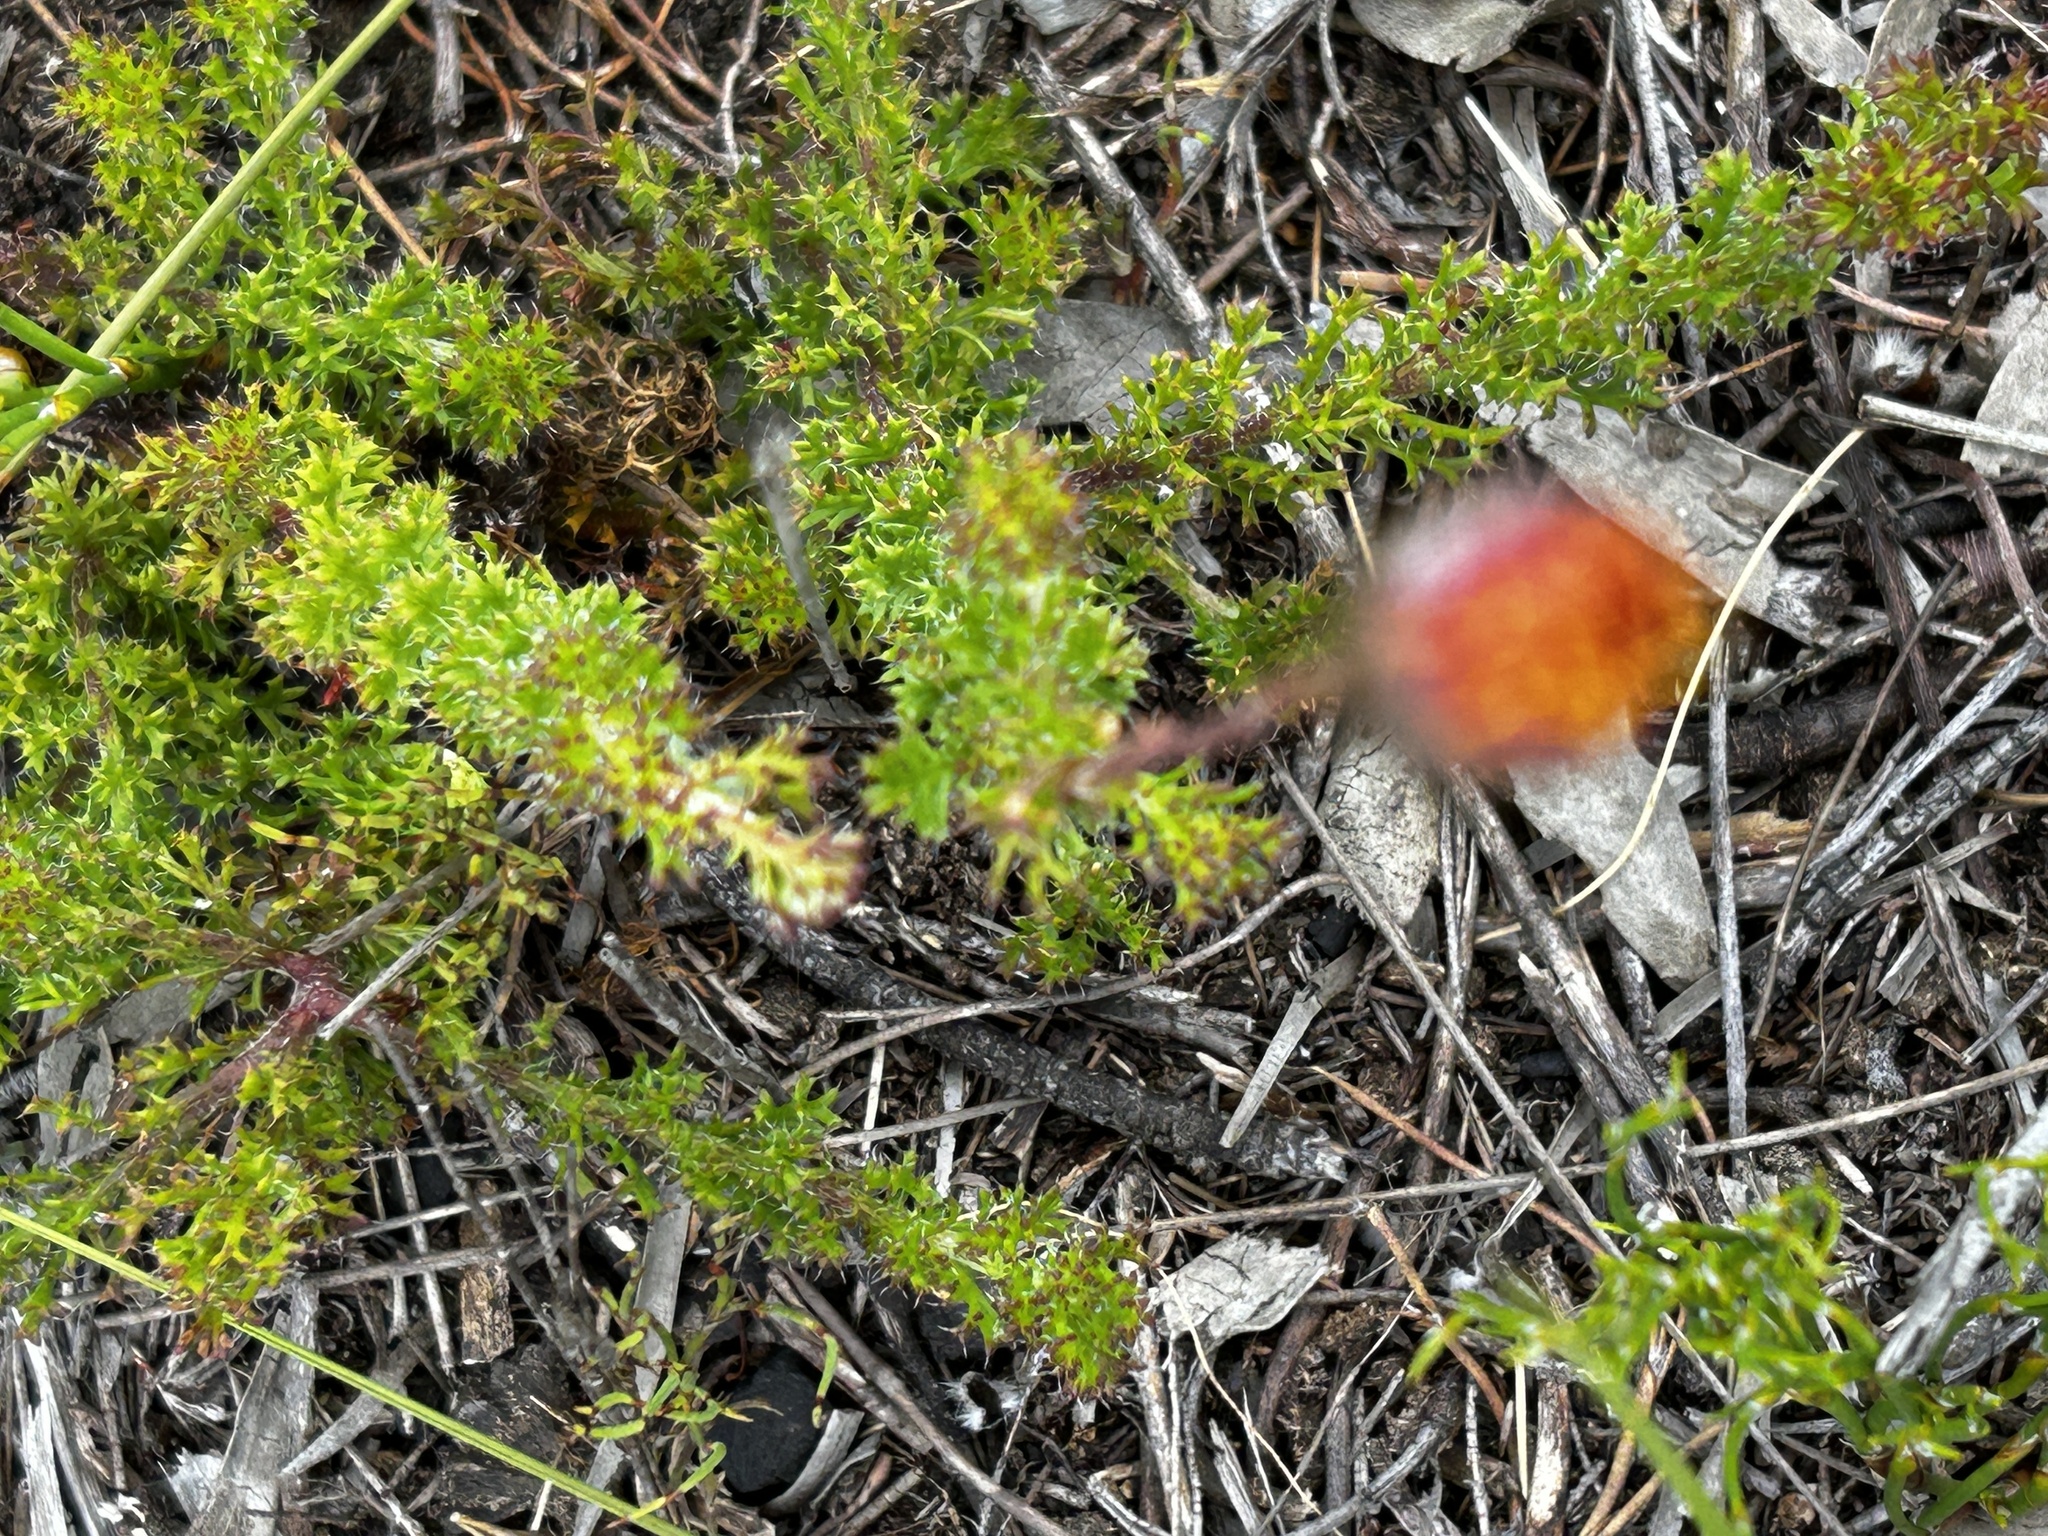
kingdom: Plantae
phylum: Tracheophyta
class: Magnoliopsida
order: Asterales
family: Asteraceae
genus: Ursinia
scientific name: Ursinia dentata
